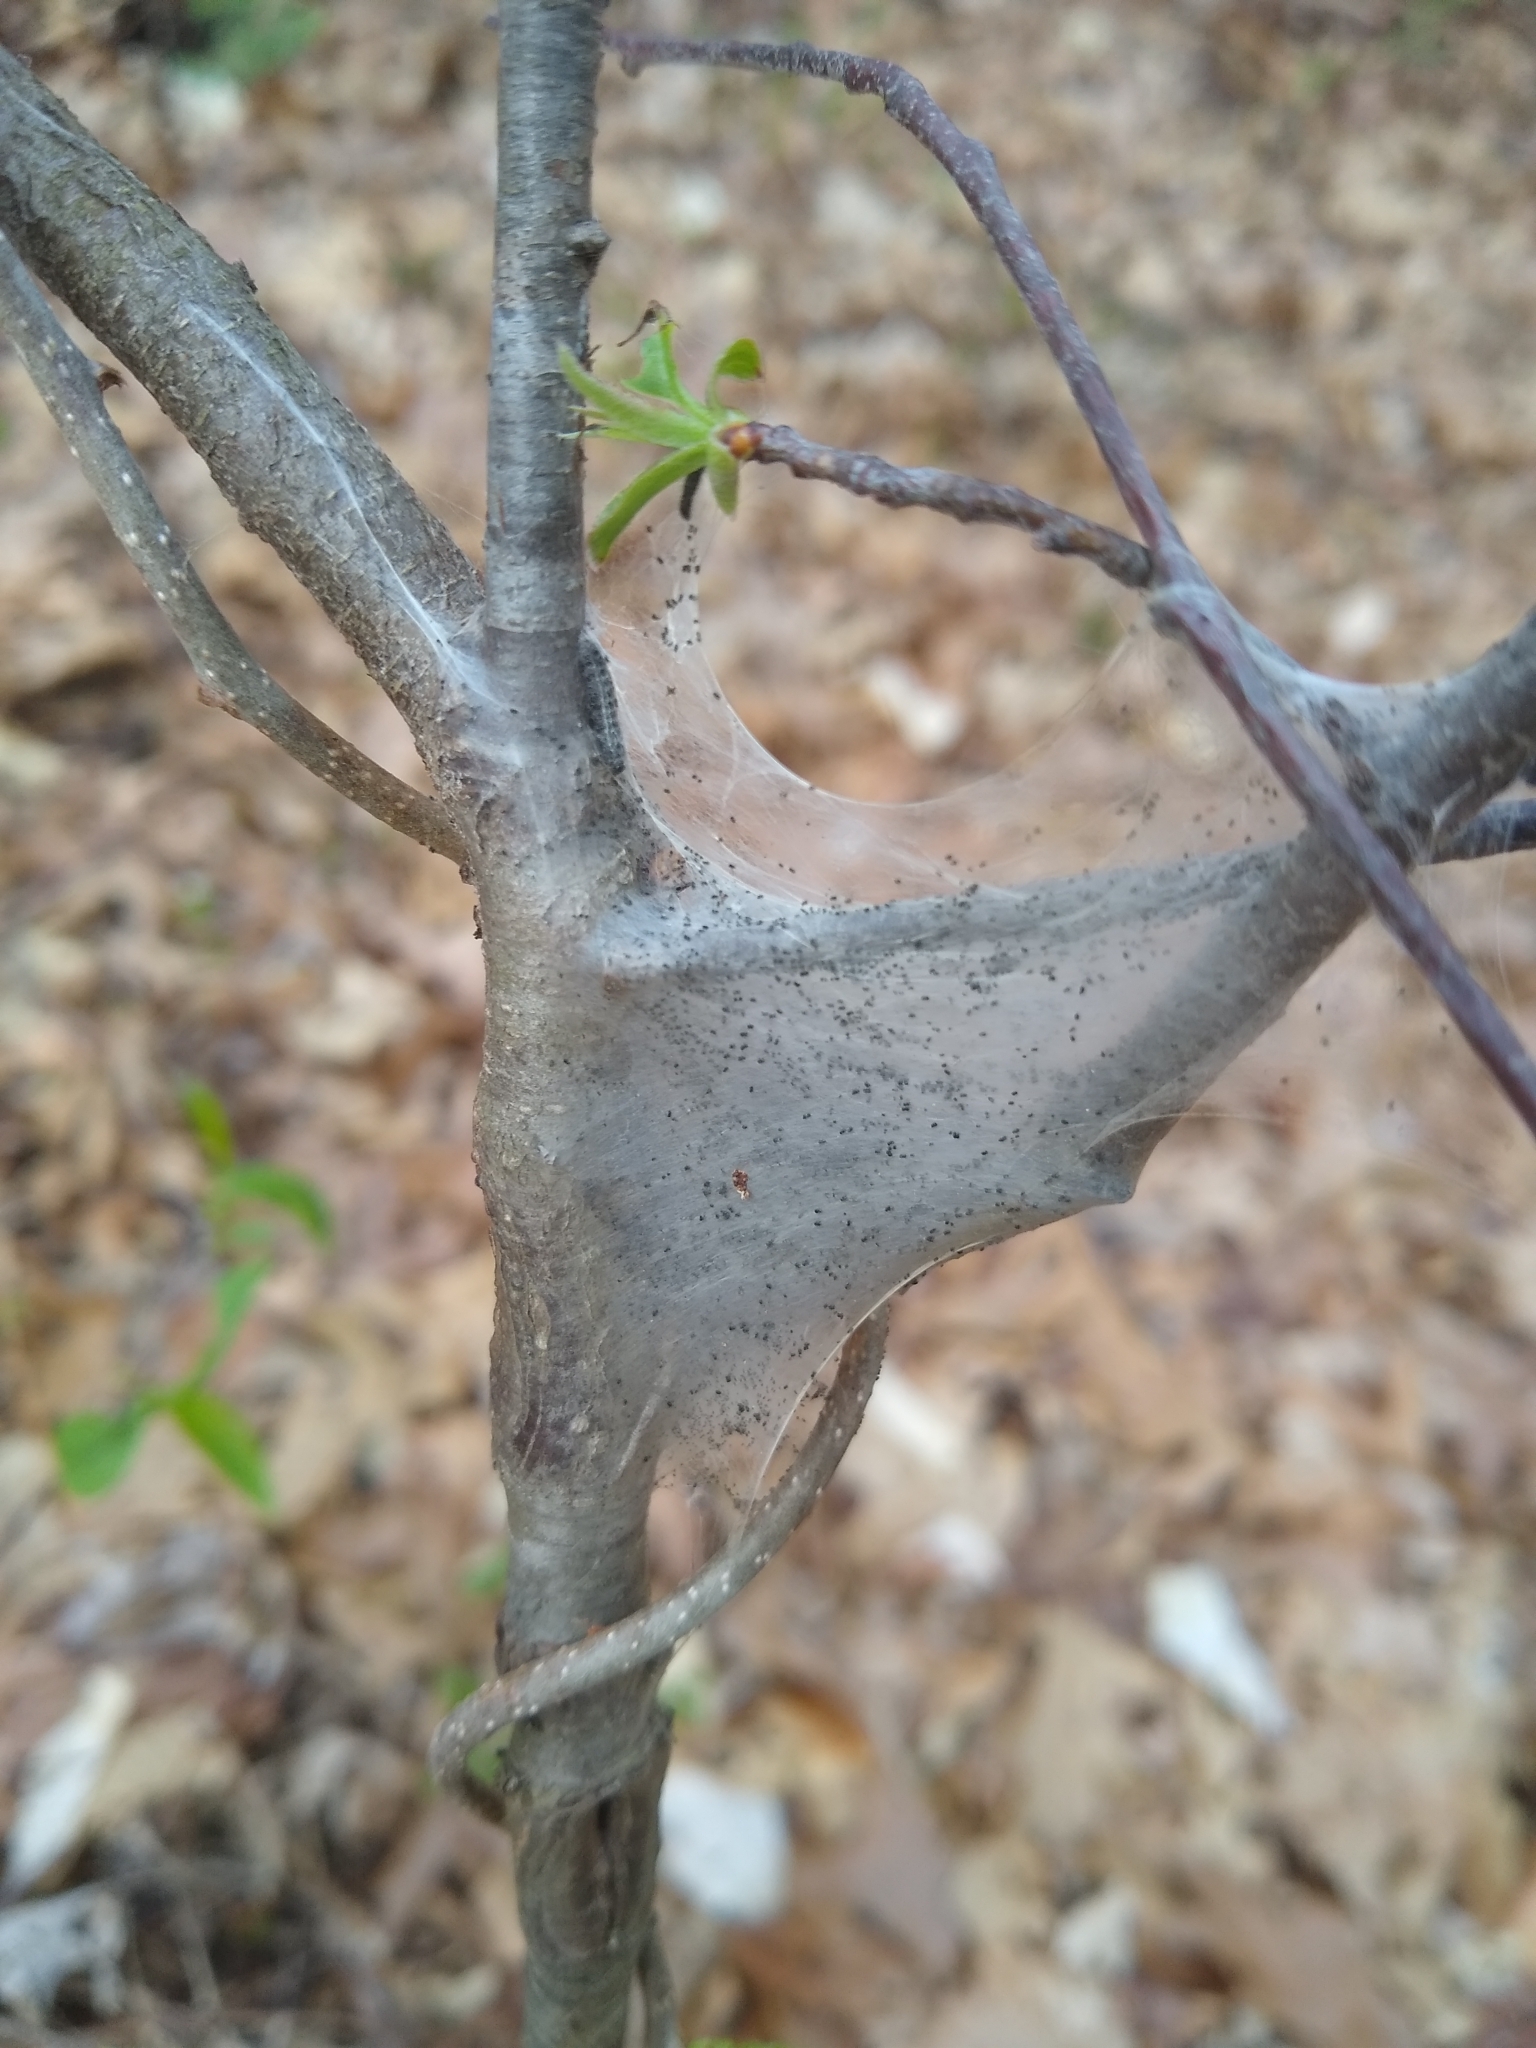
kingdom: Animalia
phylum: Arthropoda
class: Insecta
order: Lepidoptera
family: Lasiocampidae
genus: Malacosoma
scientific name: Malacosoma americana
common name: Eastern tent caterpillar moth
